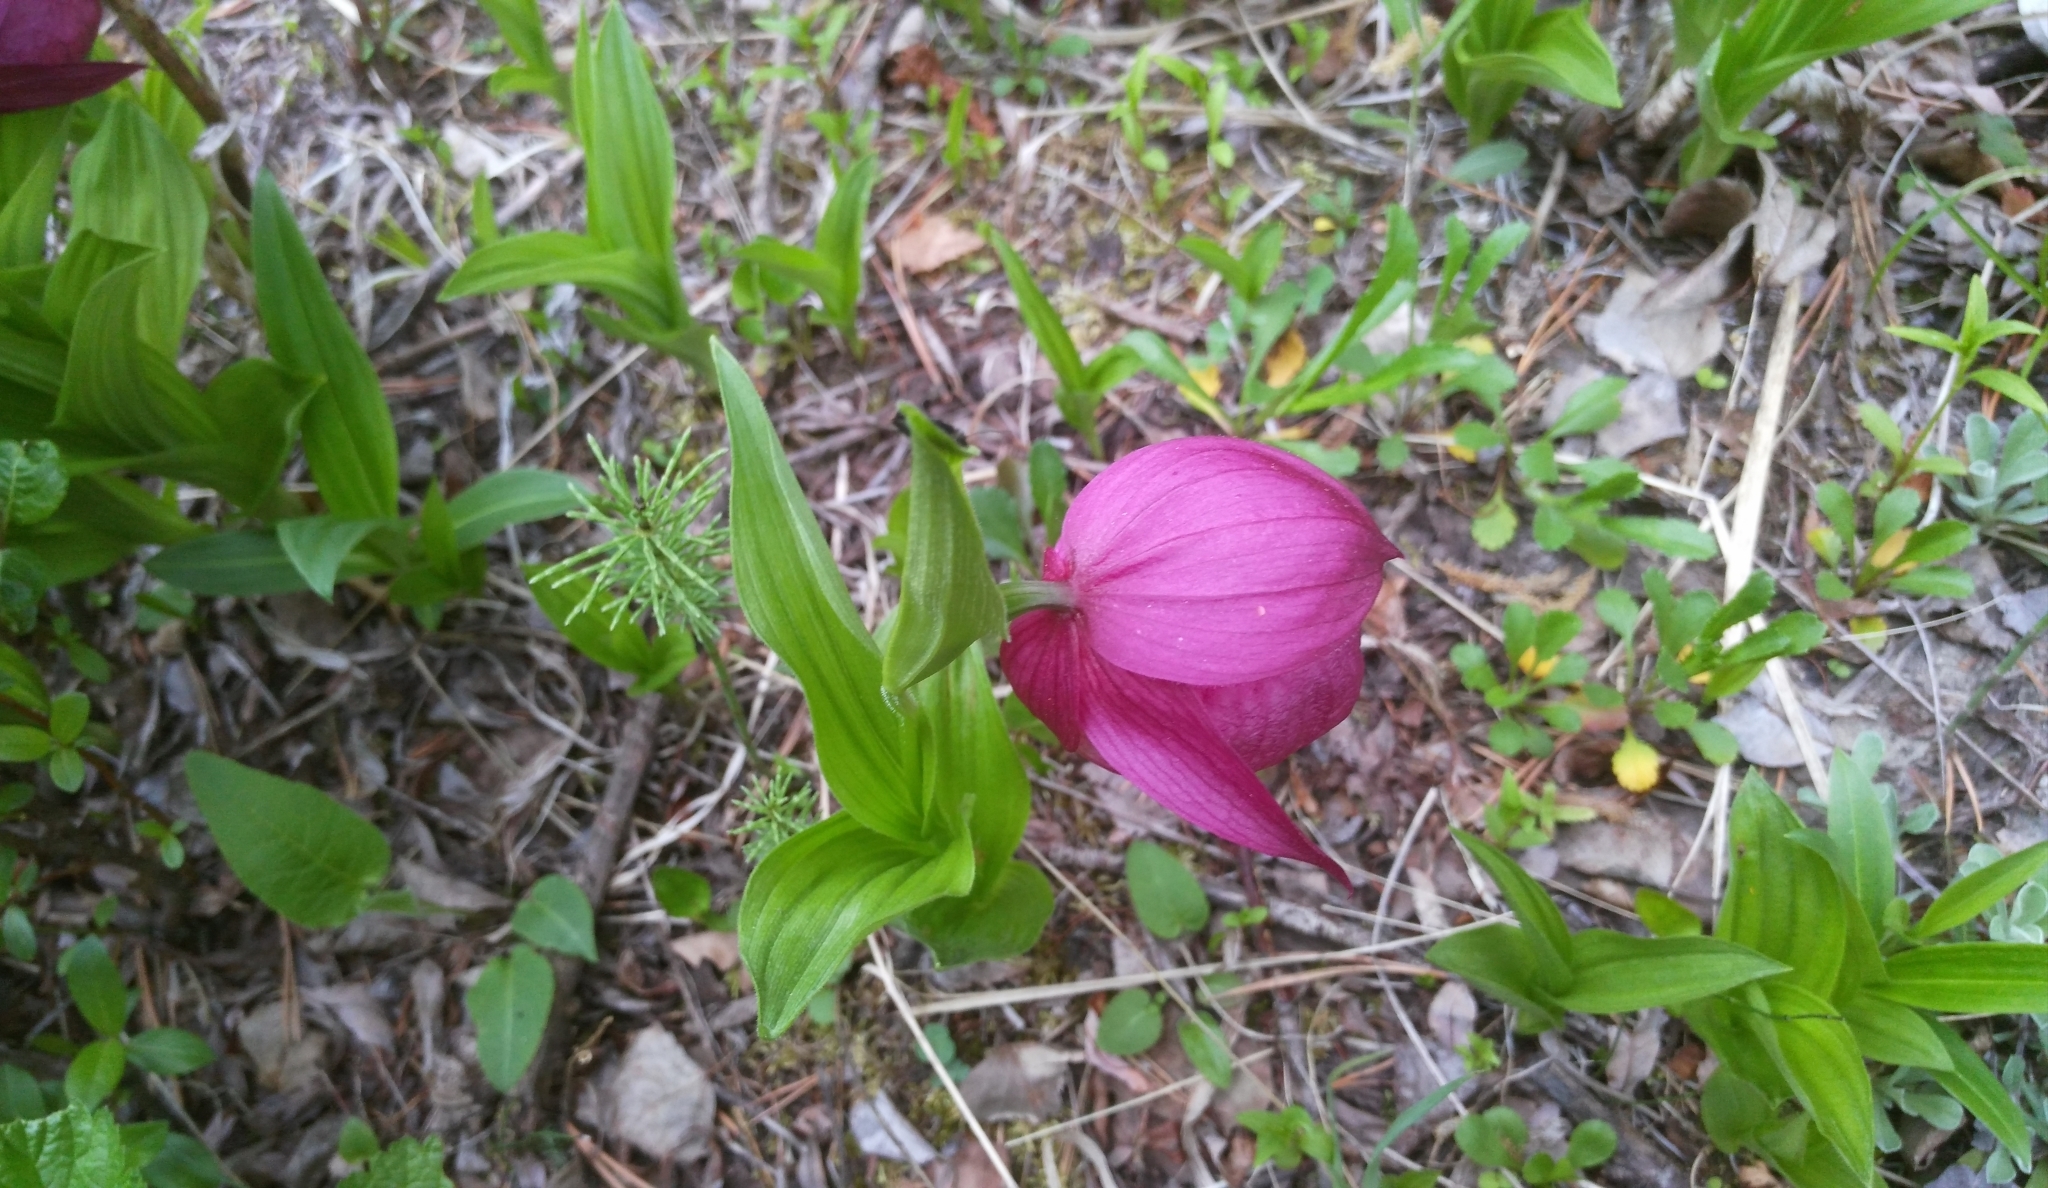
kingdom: Plantae
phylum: Tracheophyta
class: Liliopsida
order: Asparagales
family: Orchidaceae
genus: Cypripedium
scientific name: Cypripedium macranthos
